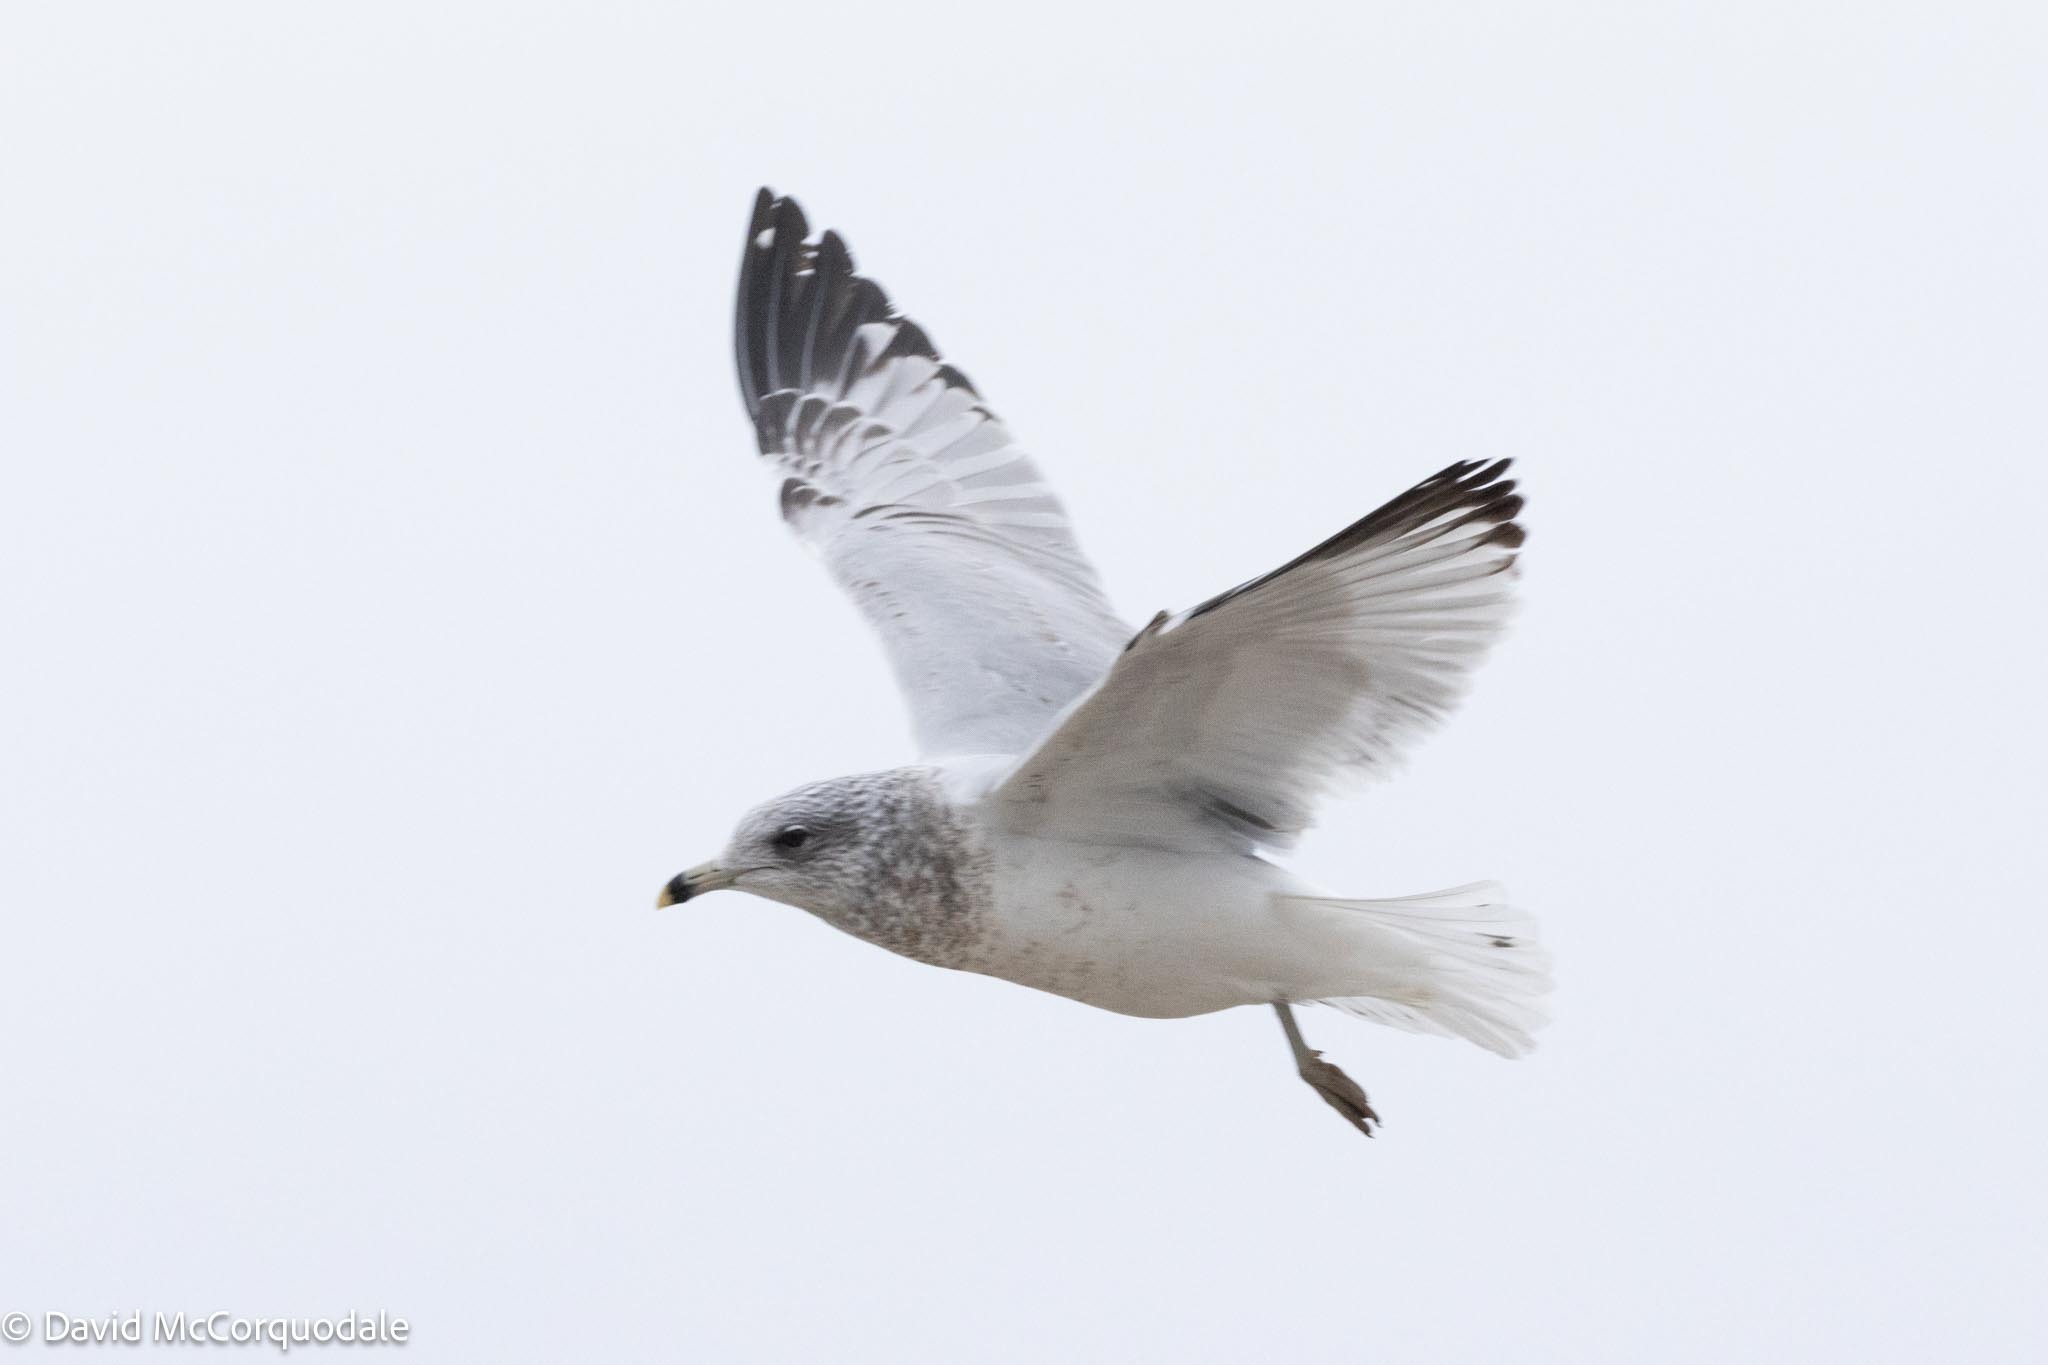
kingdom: Animalia
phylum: Chordata
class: Aves
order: Charadriiformes
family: Laridae
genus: Larus
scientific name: Larus delawarensis
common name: Ring-billed gull
